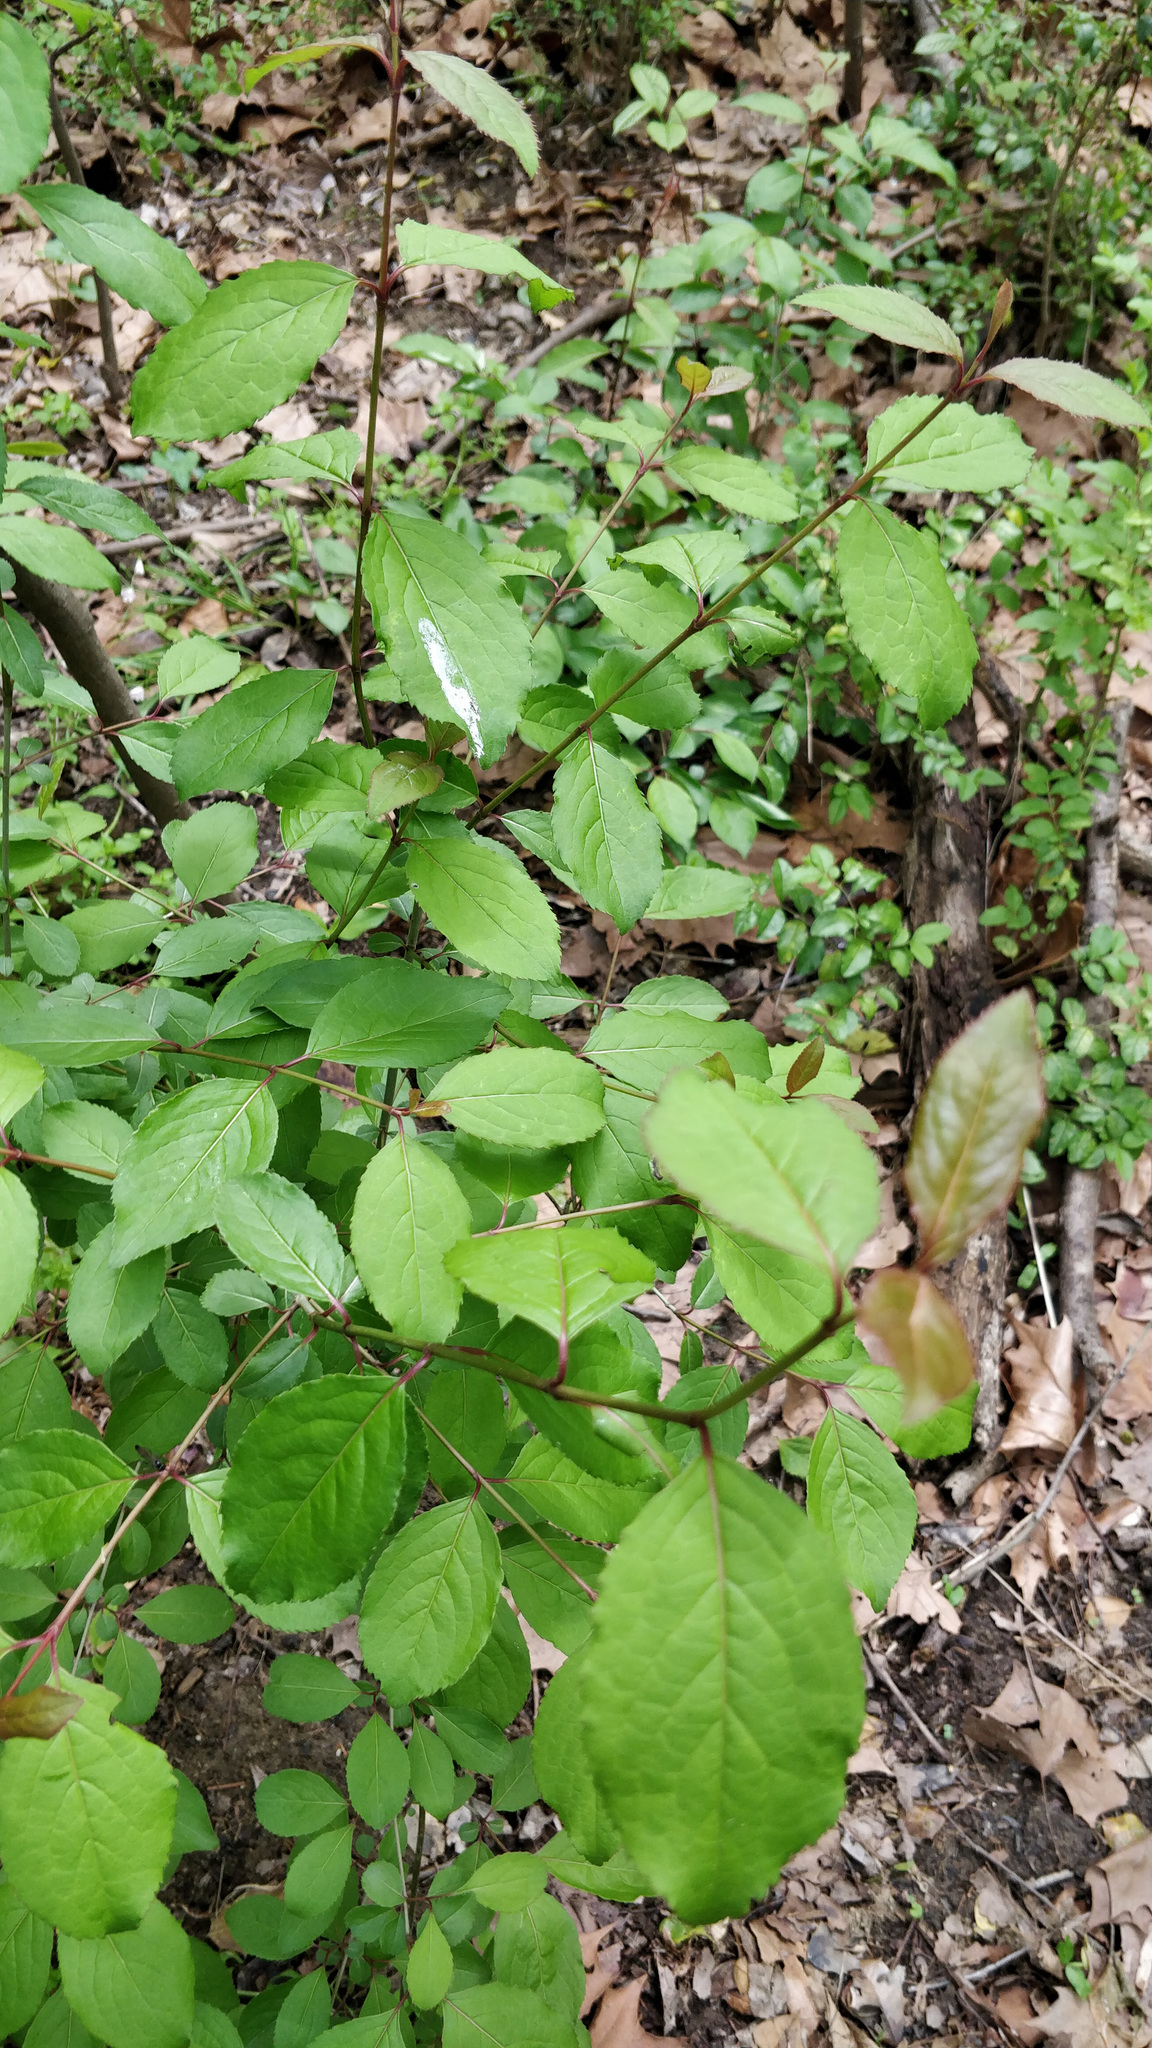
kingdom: Plantae
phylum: Tracheophyta
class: Magnoliopsida
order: Dipsacales
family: Viburnaceae
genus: Viburnum
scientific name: Viburnum prunifolium
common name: Black haw
